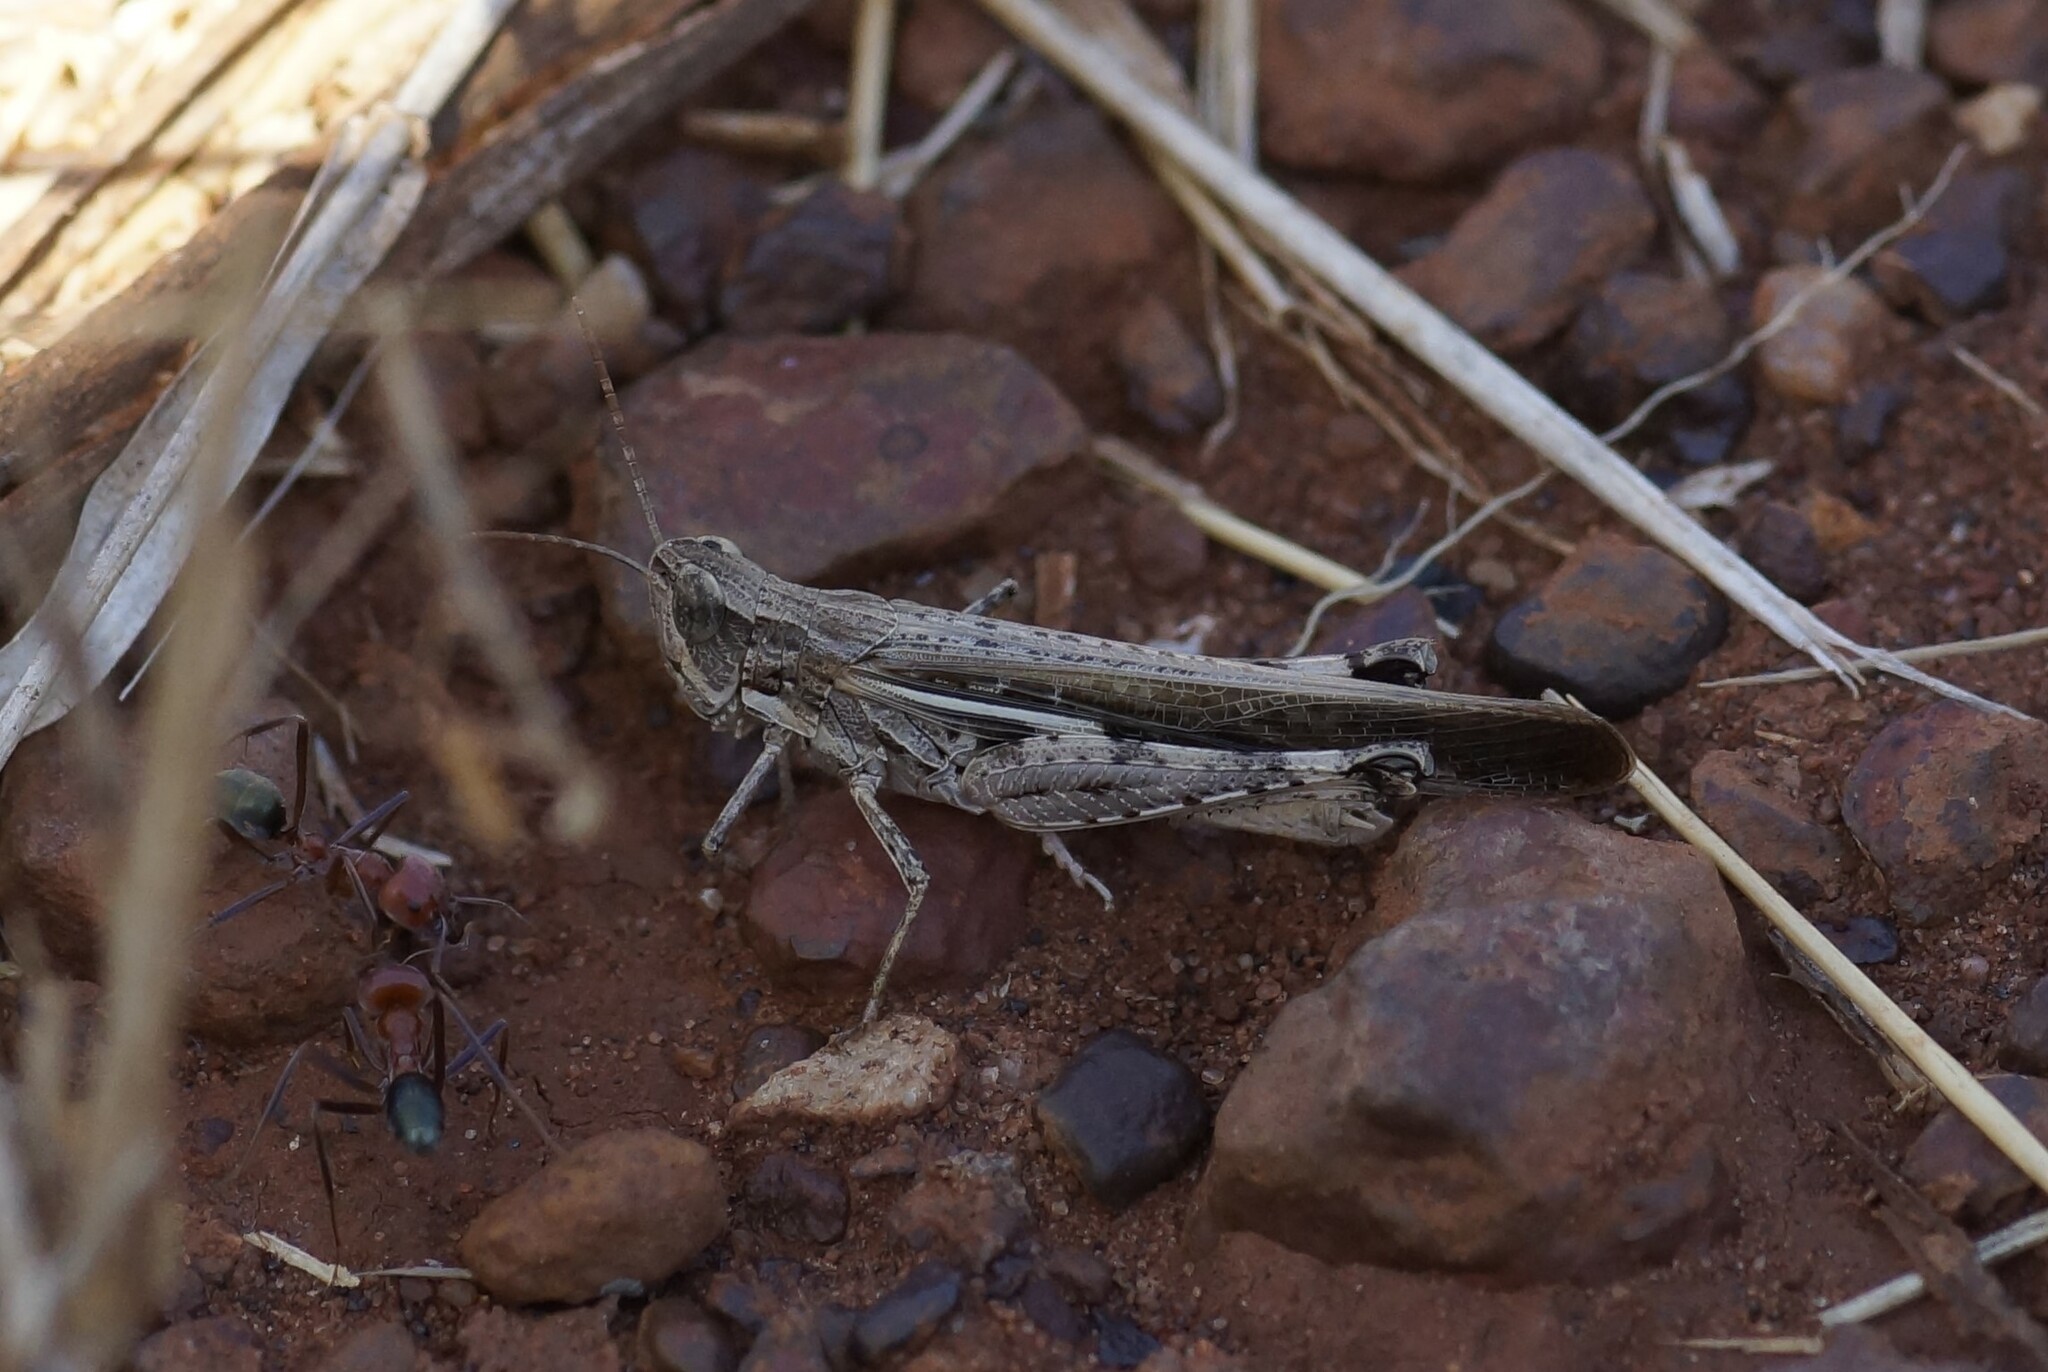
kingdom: Animalia
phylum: Arthropoda
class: Insecta
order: Orthoptera
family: Acrididae
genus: Aiolopus
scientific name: Aiolopus thalassinus
